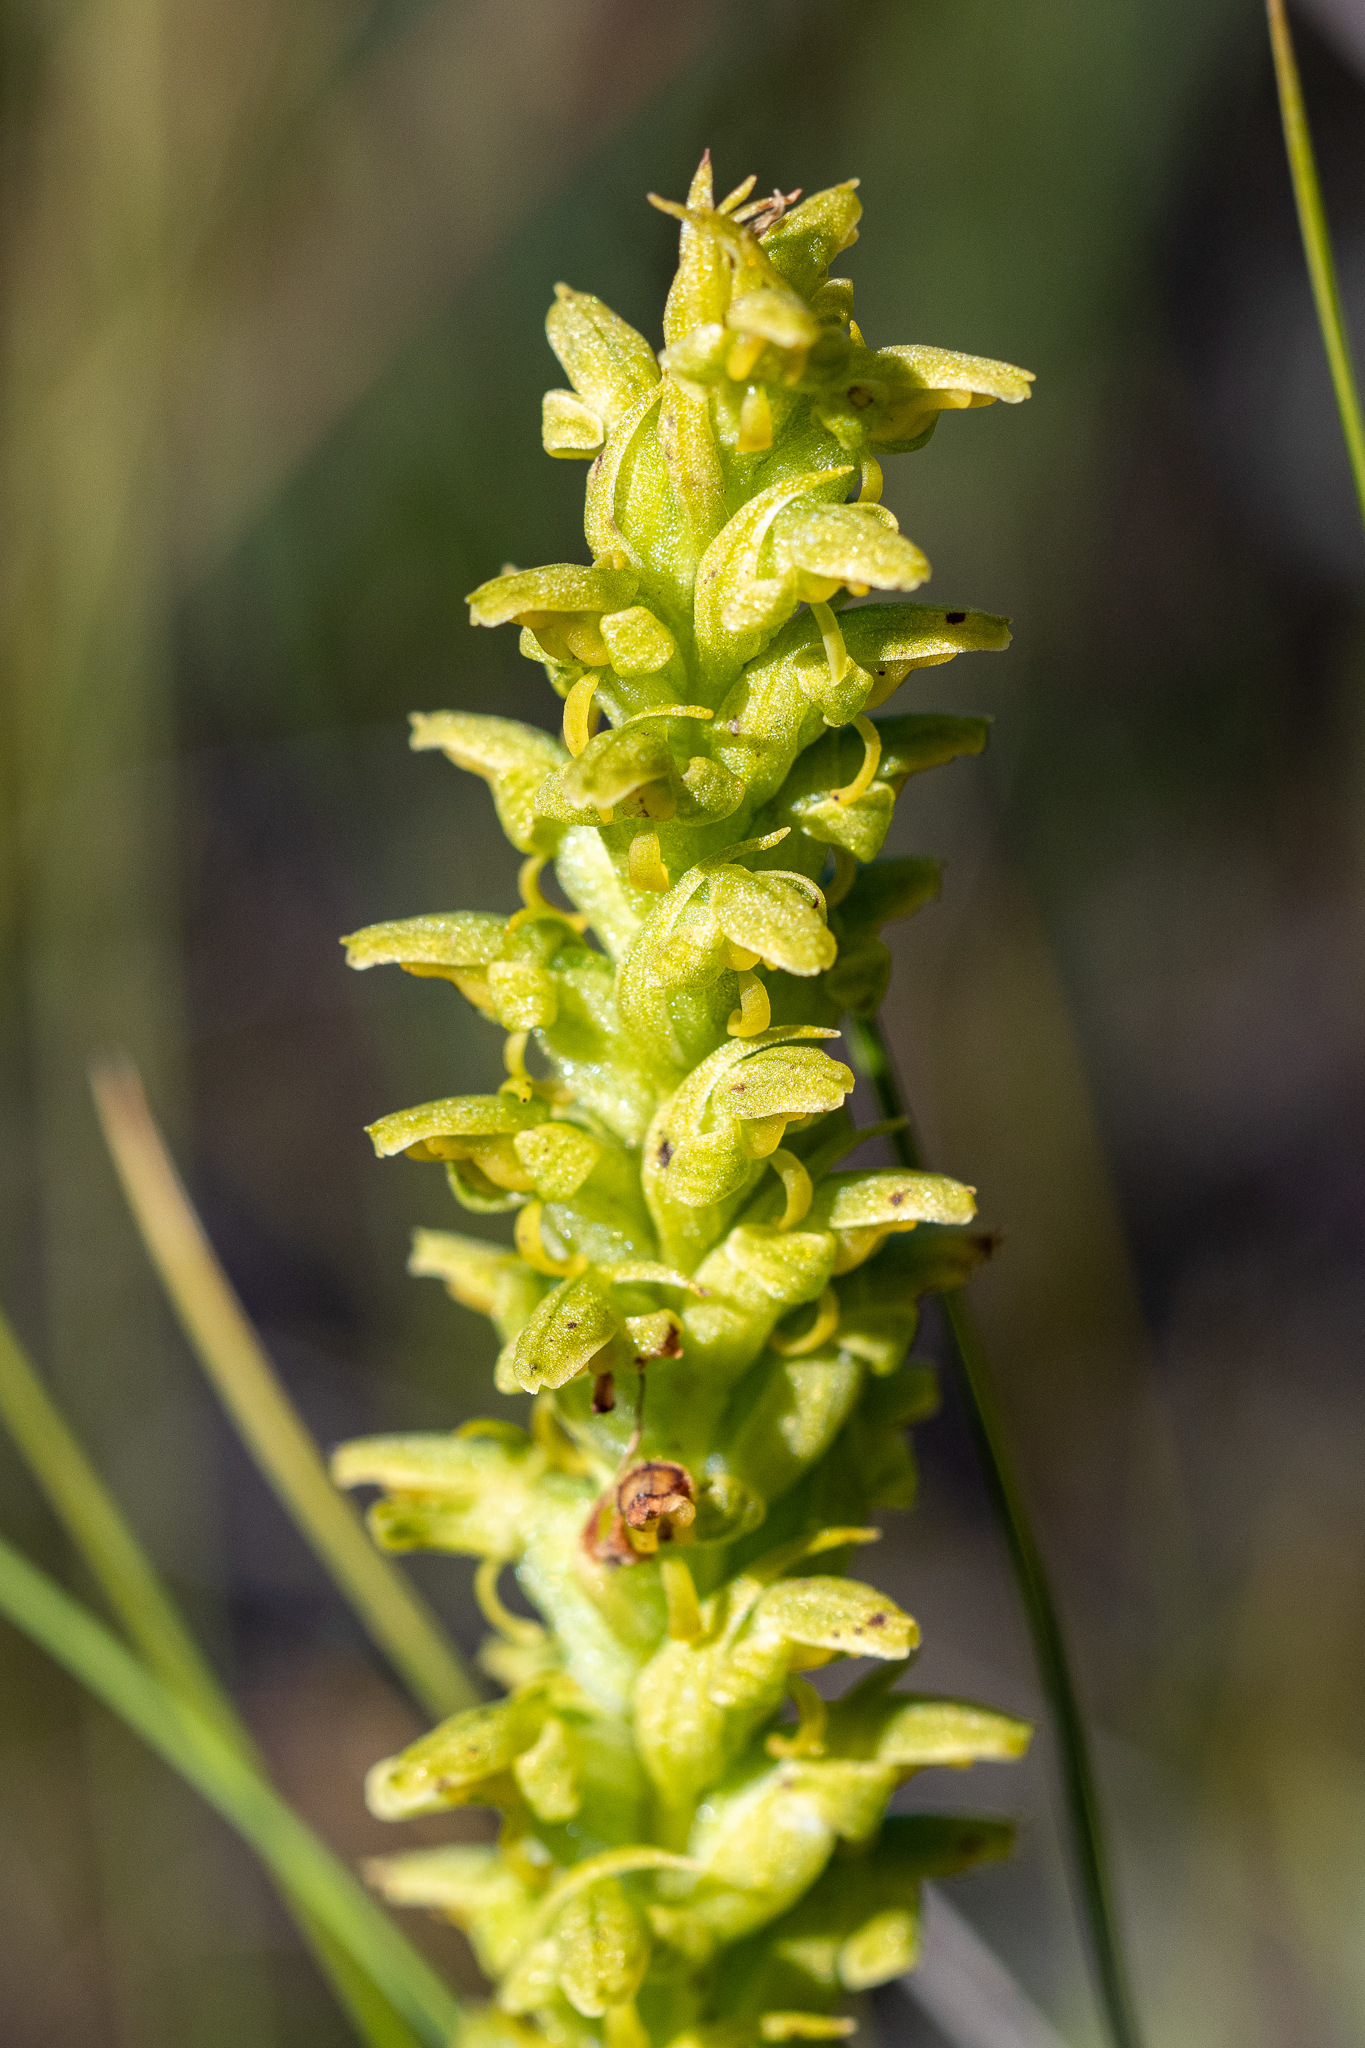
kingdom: Plantae
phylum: Tracheophyta
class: Liliopsida
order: Asparagales
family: Orchidaceae
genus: Disa
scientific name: Disa cylindrica
